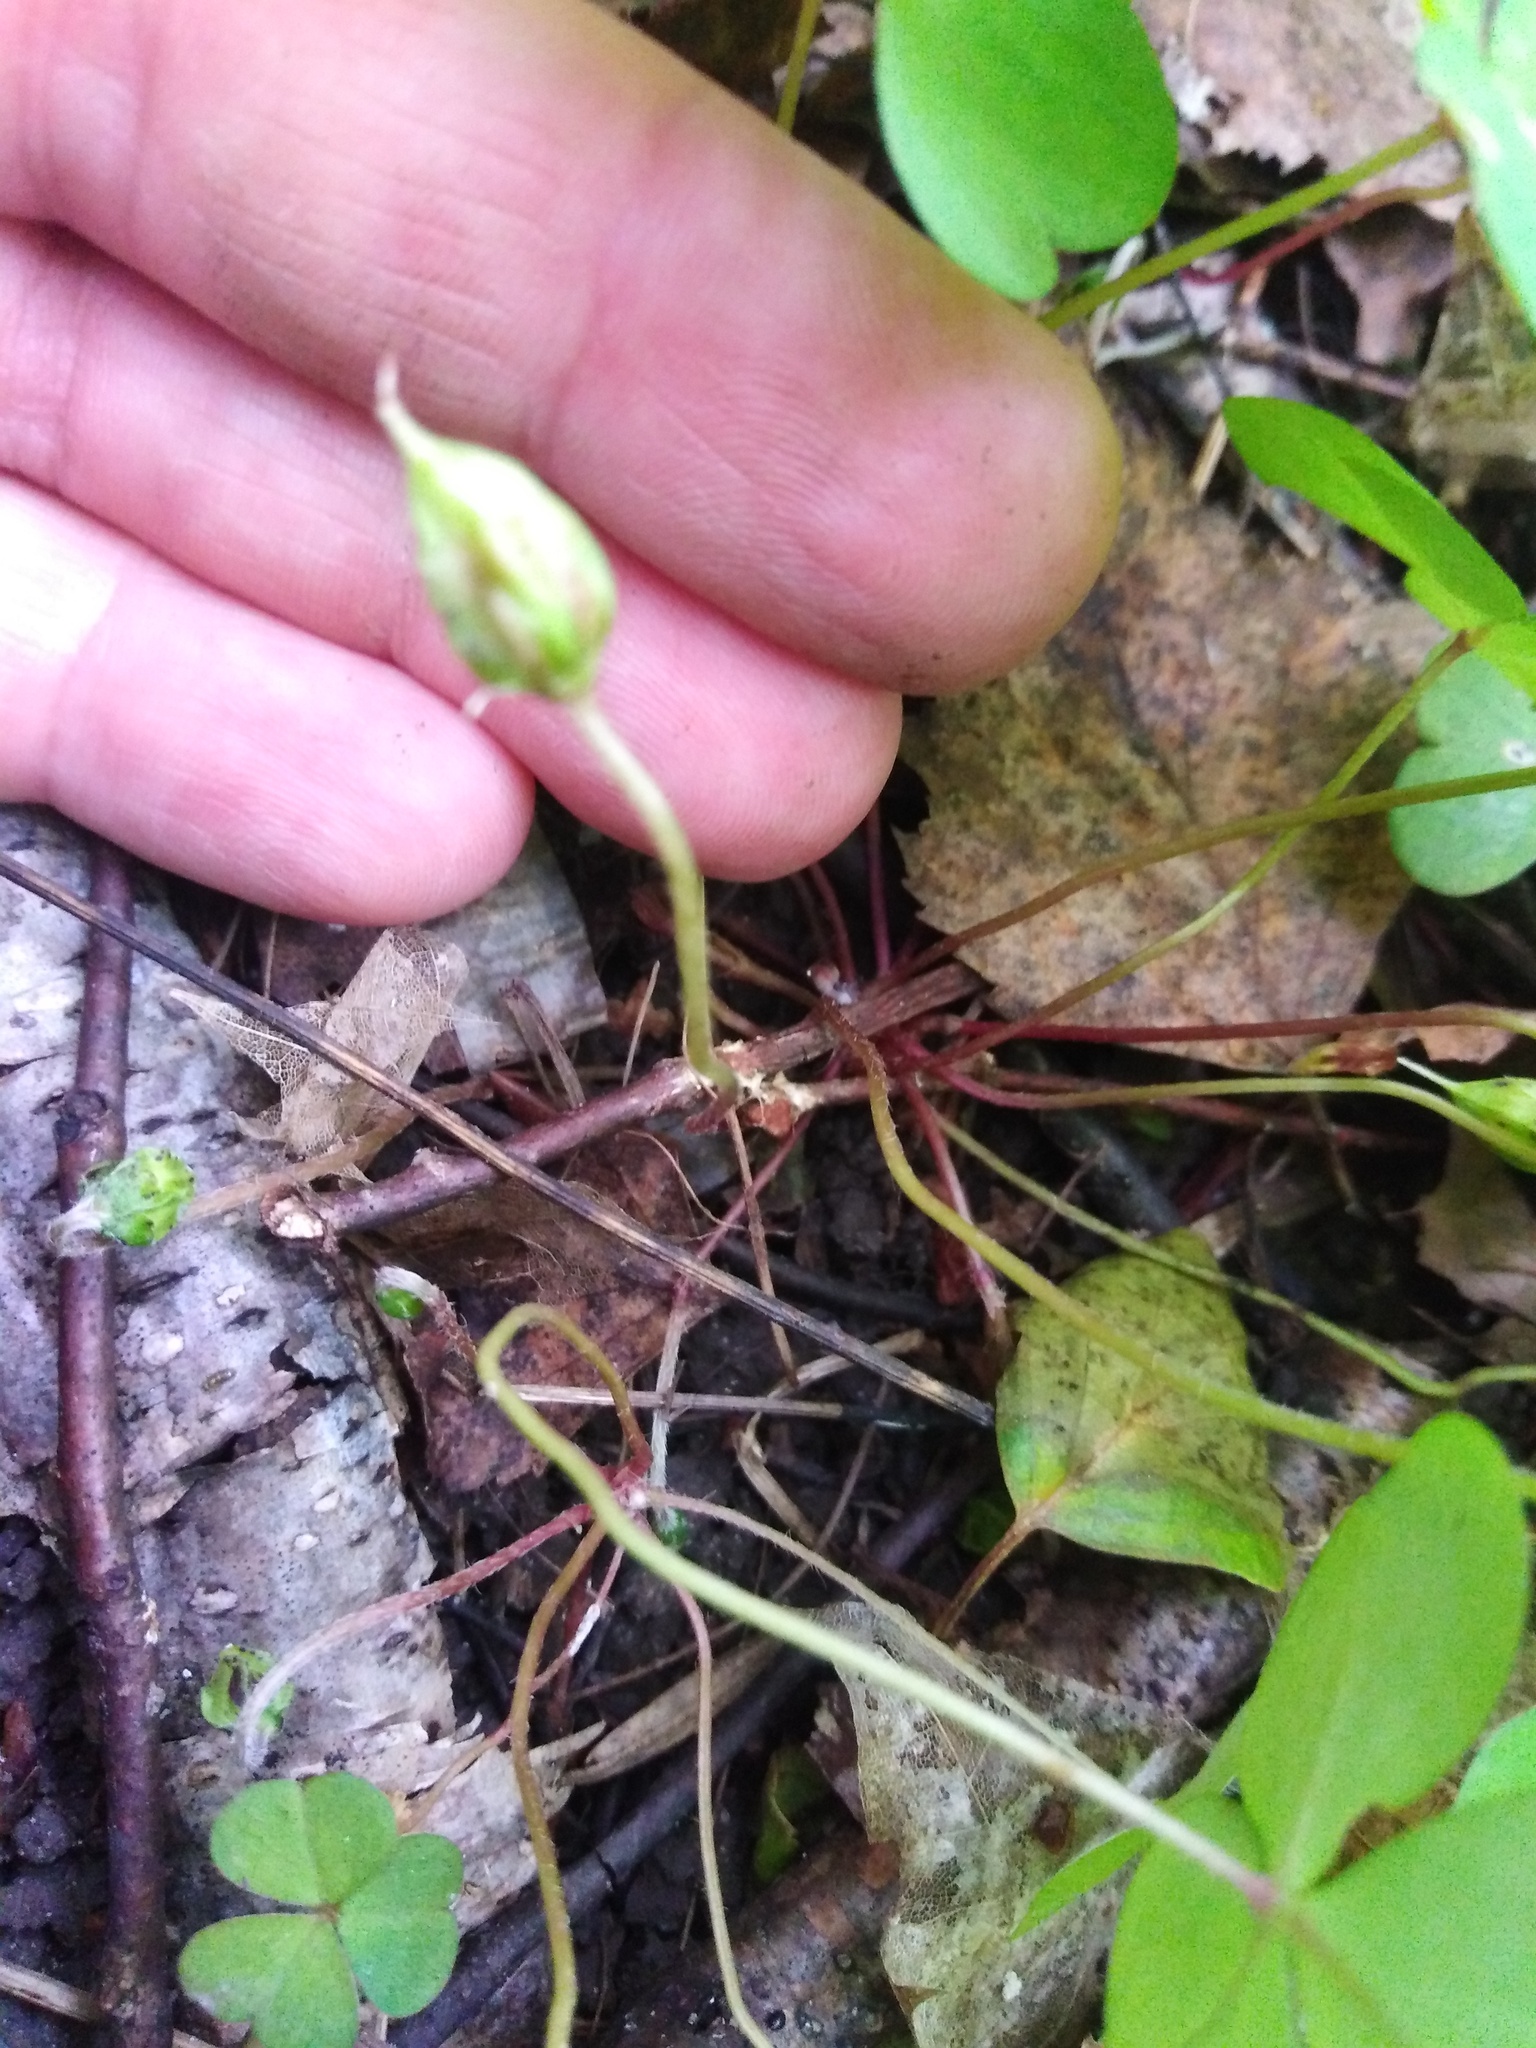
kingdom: Plantae
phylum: Tracheophyta
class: Magnoliopsida
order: Oxalidales
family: Oxalidaceae
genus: Oxalis
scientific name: Oxalis acetosella
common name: Wood-sorrel
